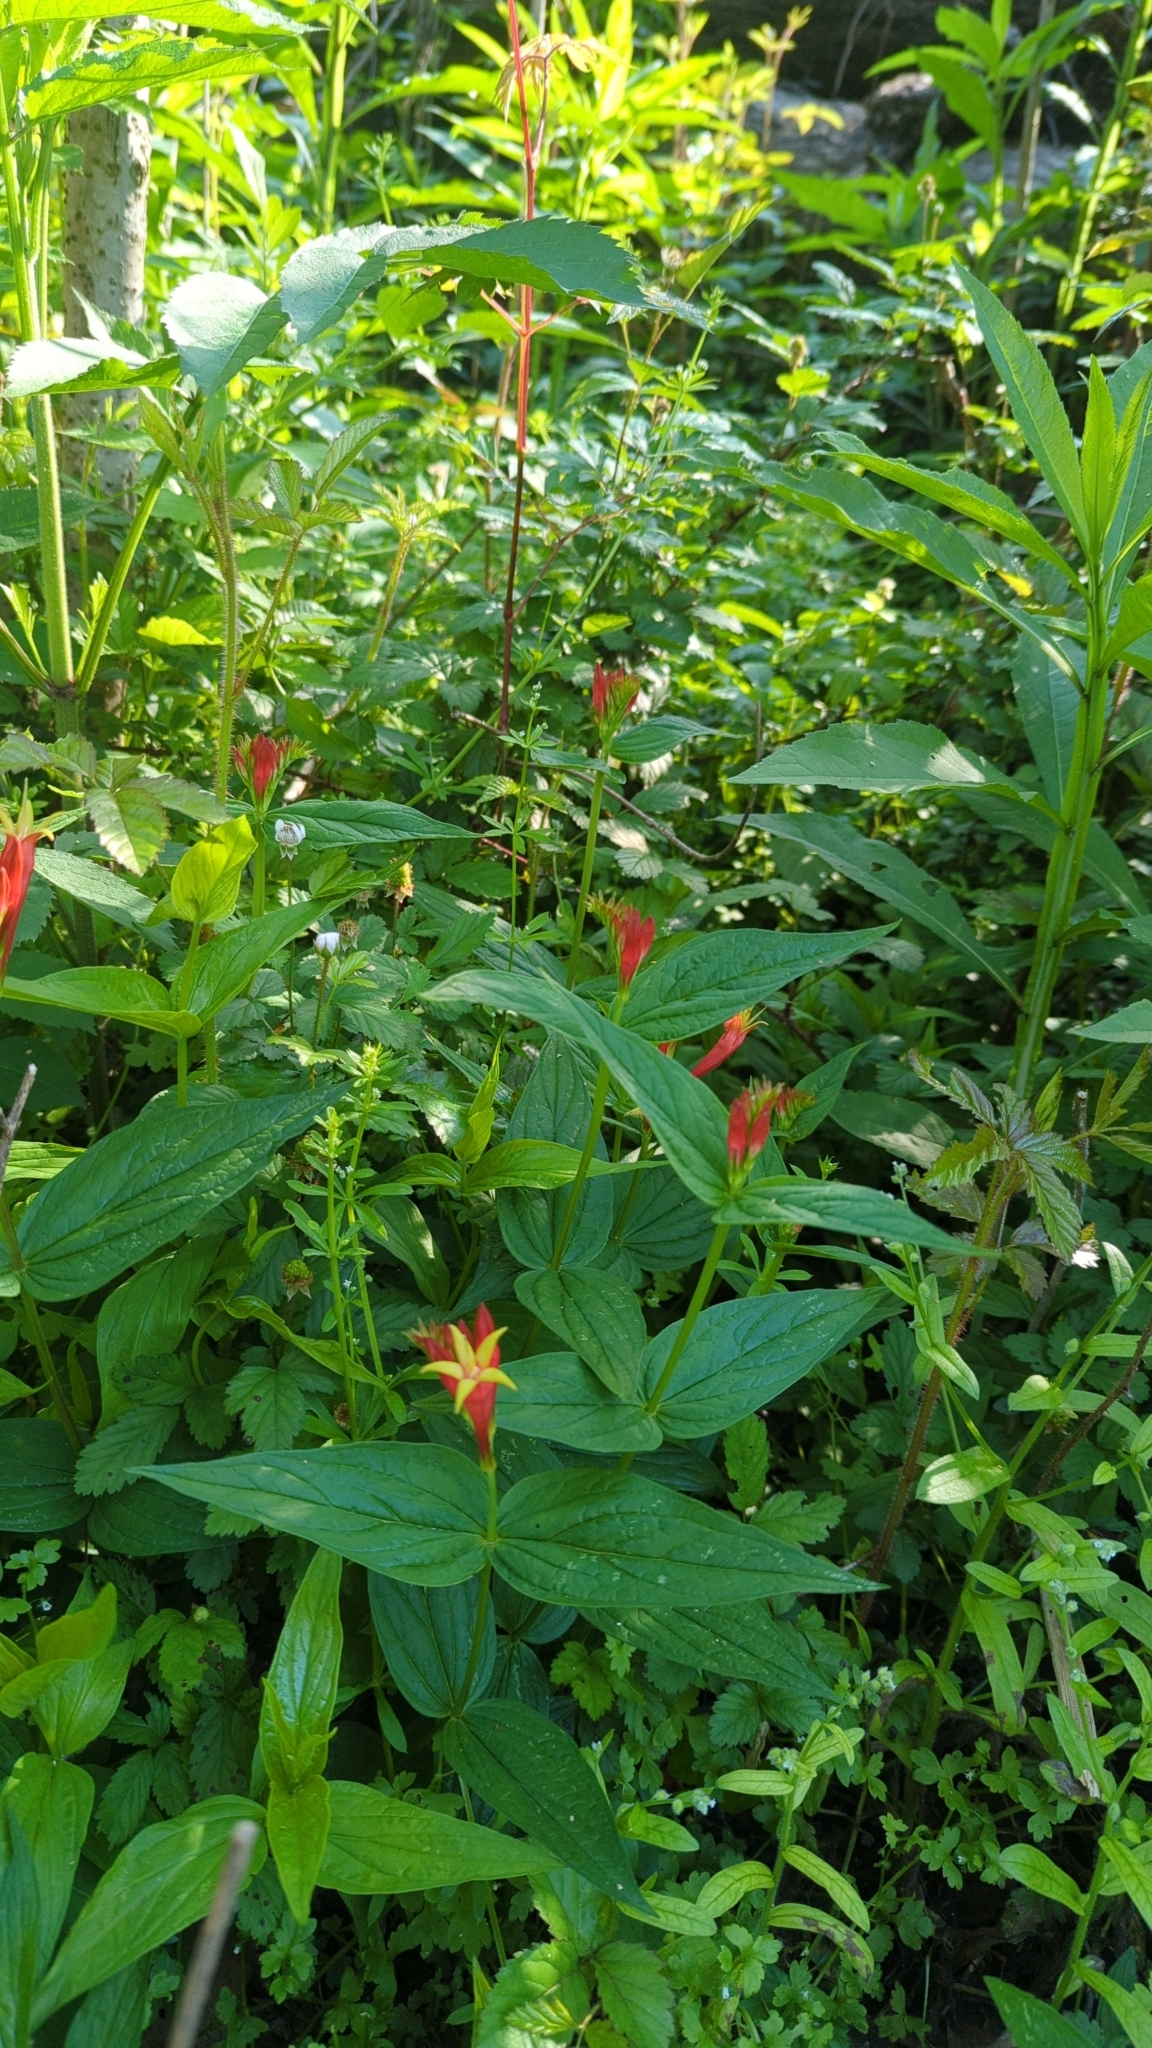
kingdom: Plantae
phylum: Tracheophyta
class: Magnoliopsida
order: Gentianales
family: Loganiaceae
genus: Spigelia
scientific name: Spigelia marilandica
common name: Indian-pink
